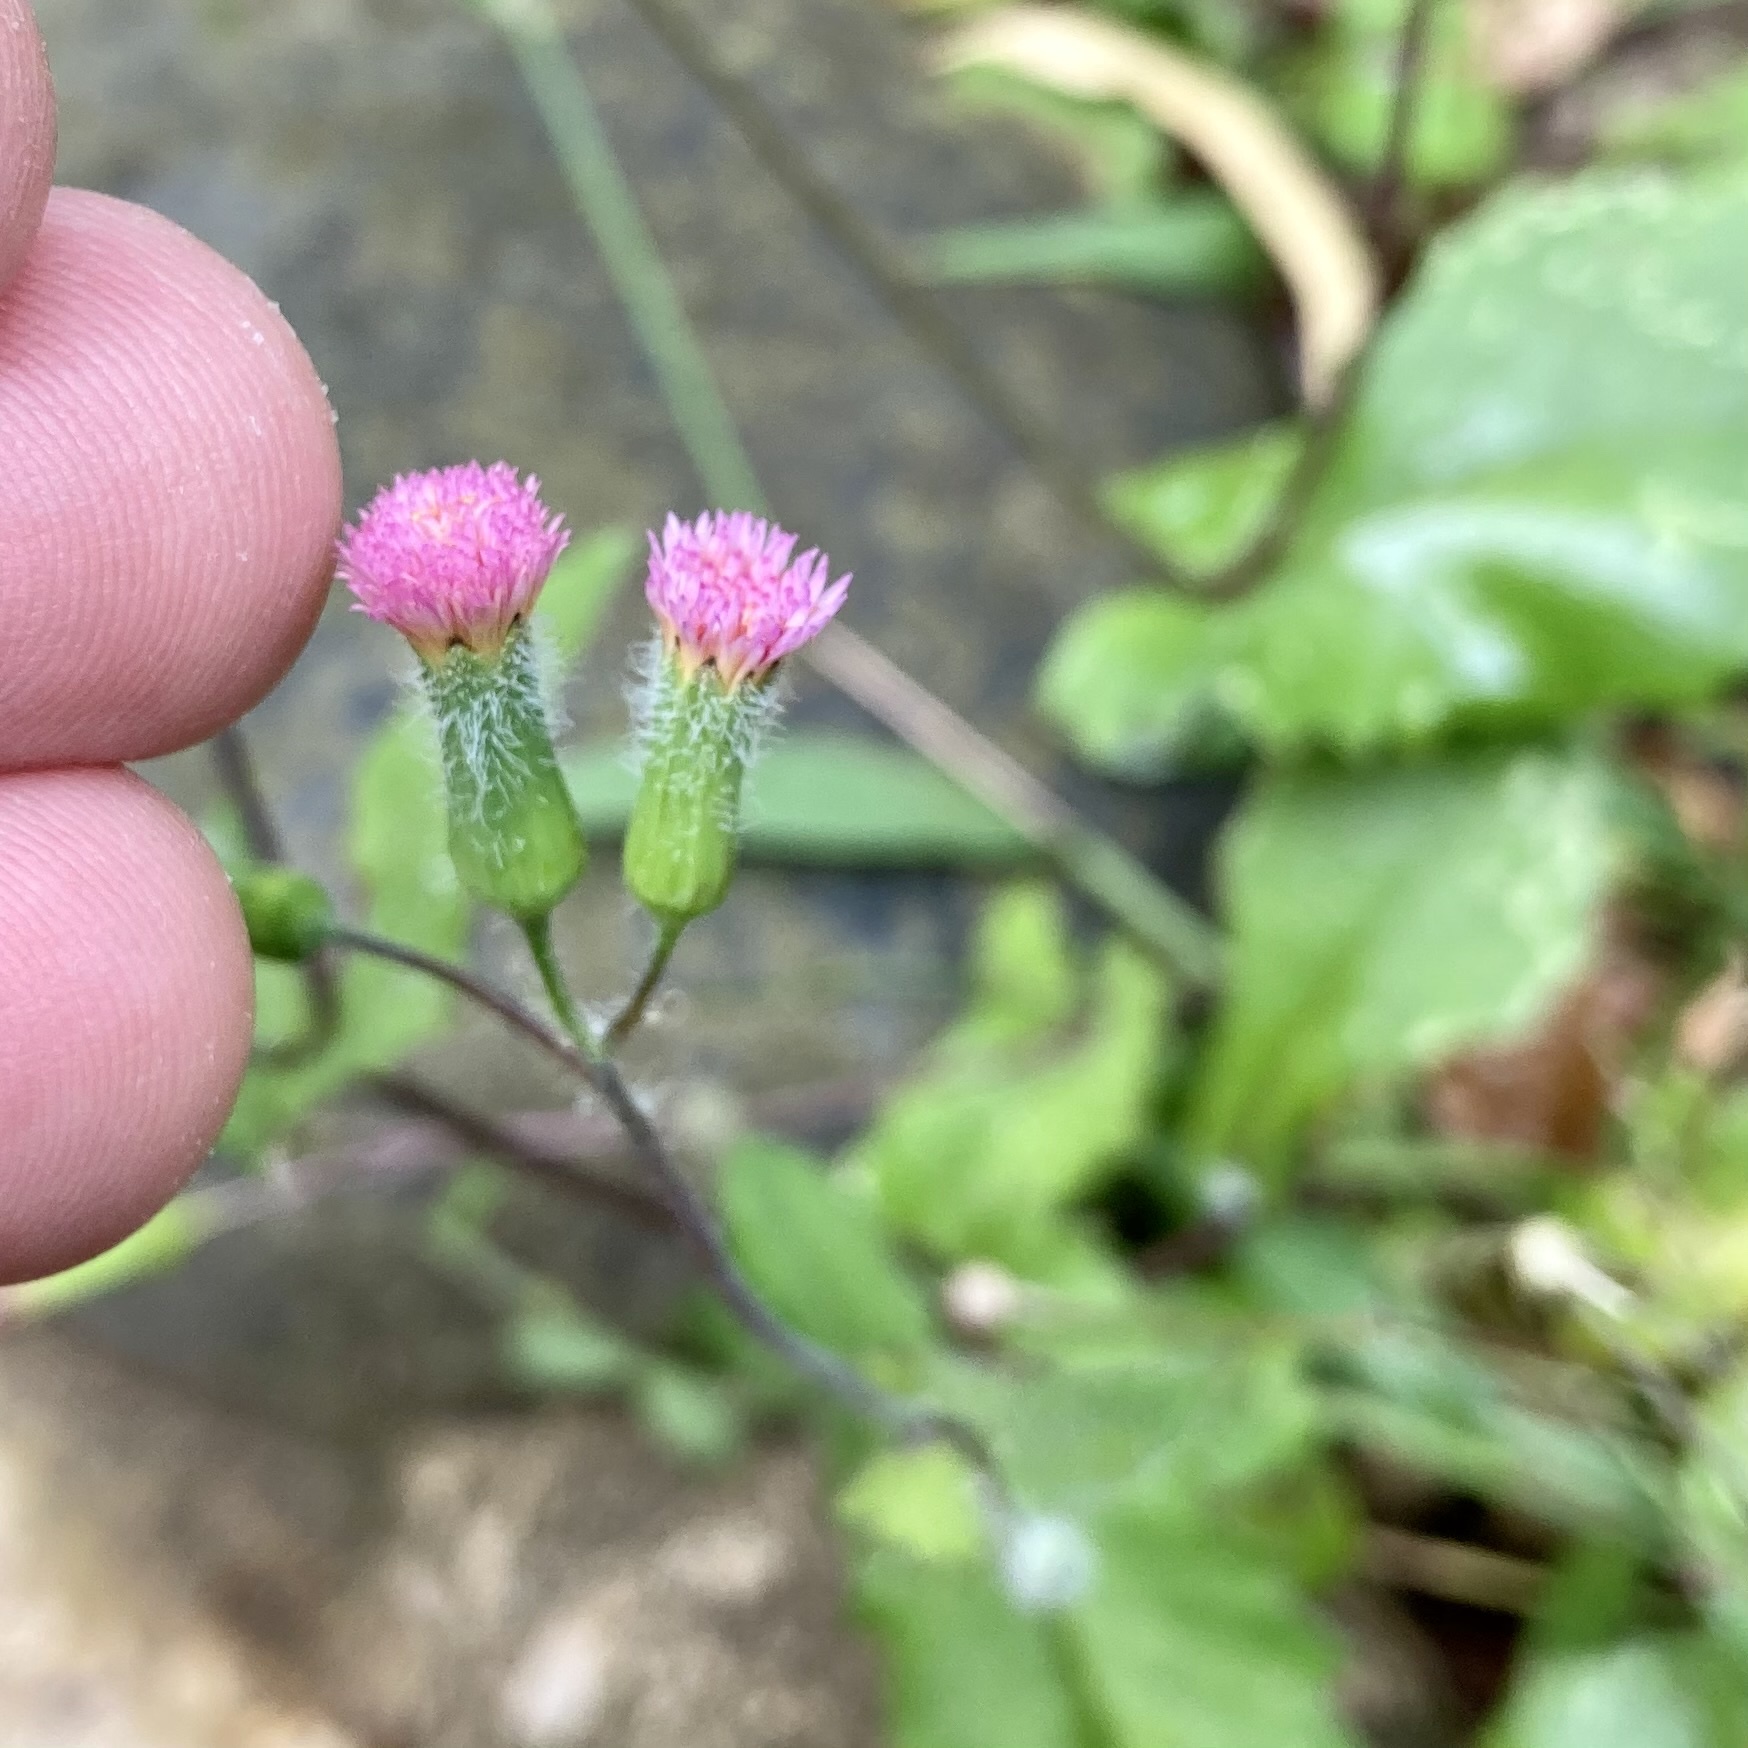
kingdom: Plantae
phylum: Tracheophyta
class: Magnoliopsida
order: Asterales
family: Asteraceae
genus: Emilia
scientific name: Emilia sonchifolia
